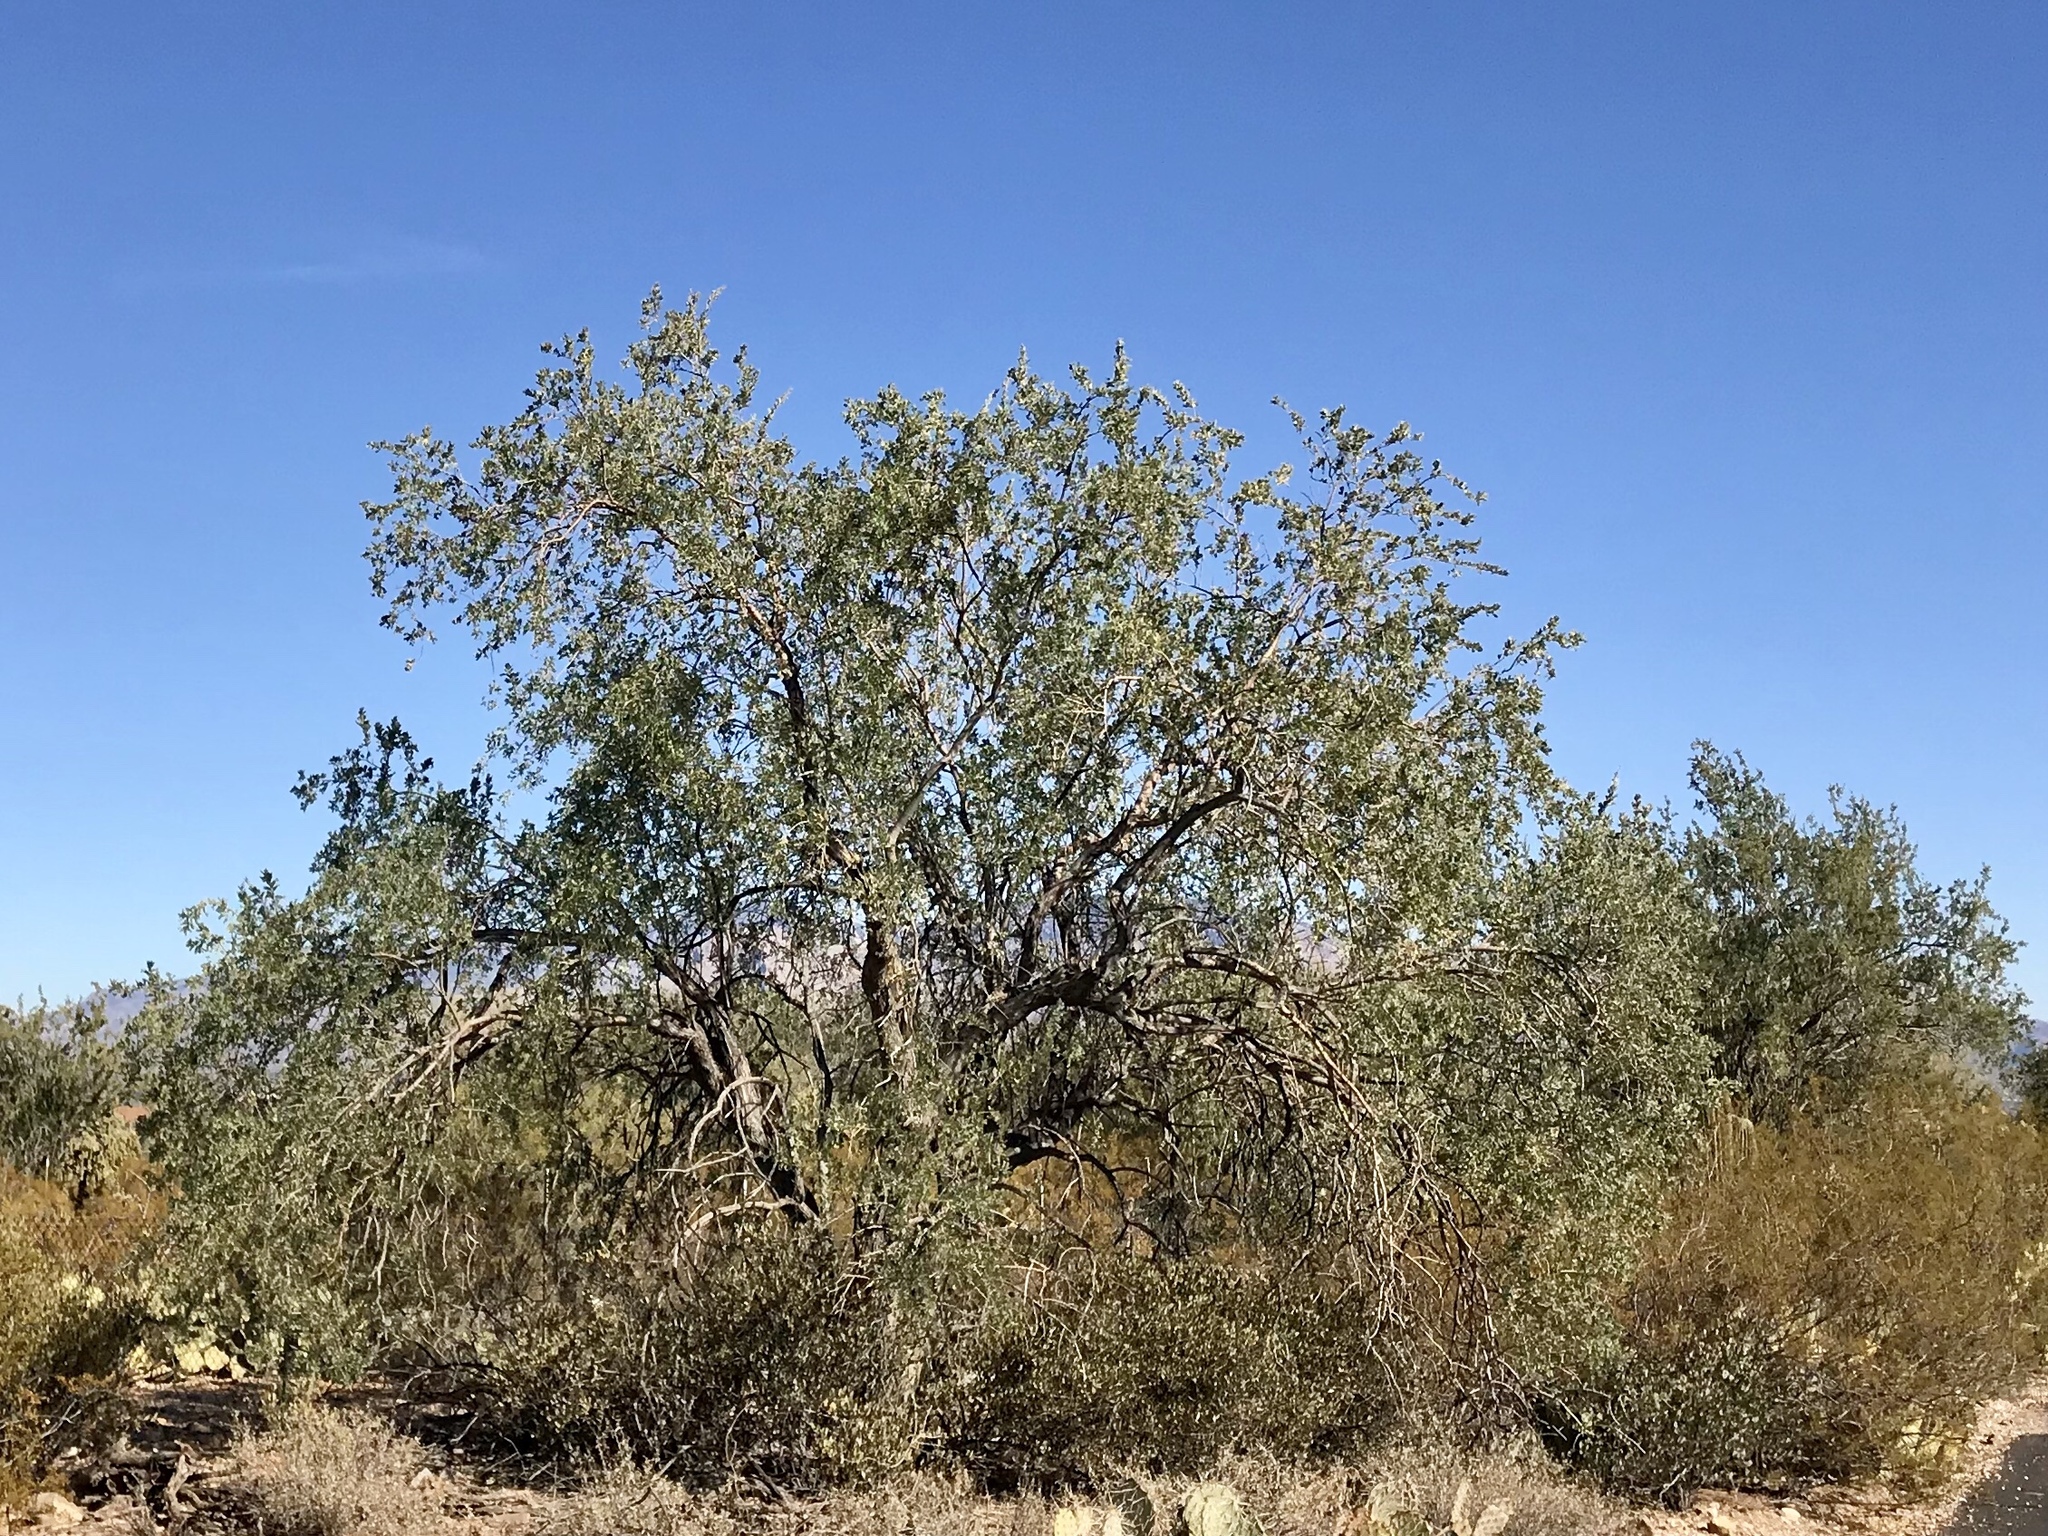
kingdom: Plantae
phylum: Tracheophyta
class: Magnoliopsida
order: Fabales
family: Fabaceae
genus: Olneya
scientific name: Olneya tesota
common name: Desert ironwood
